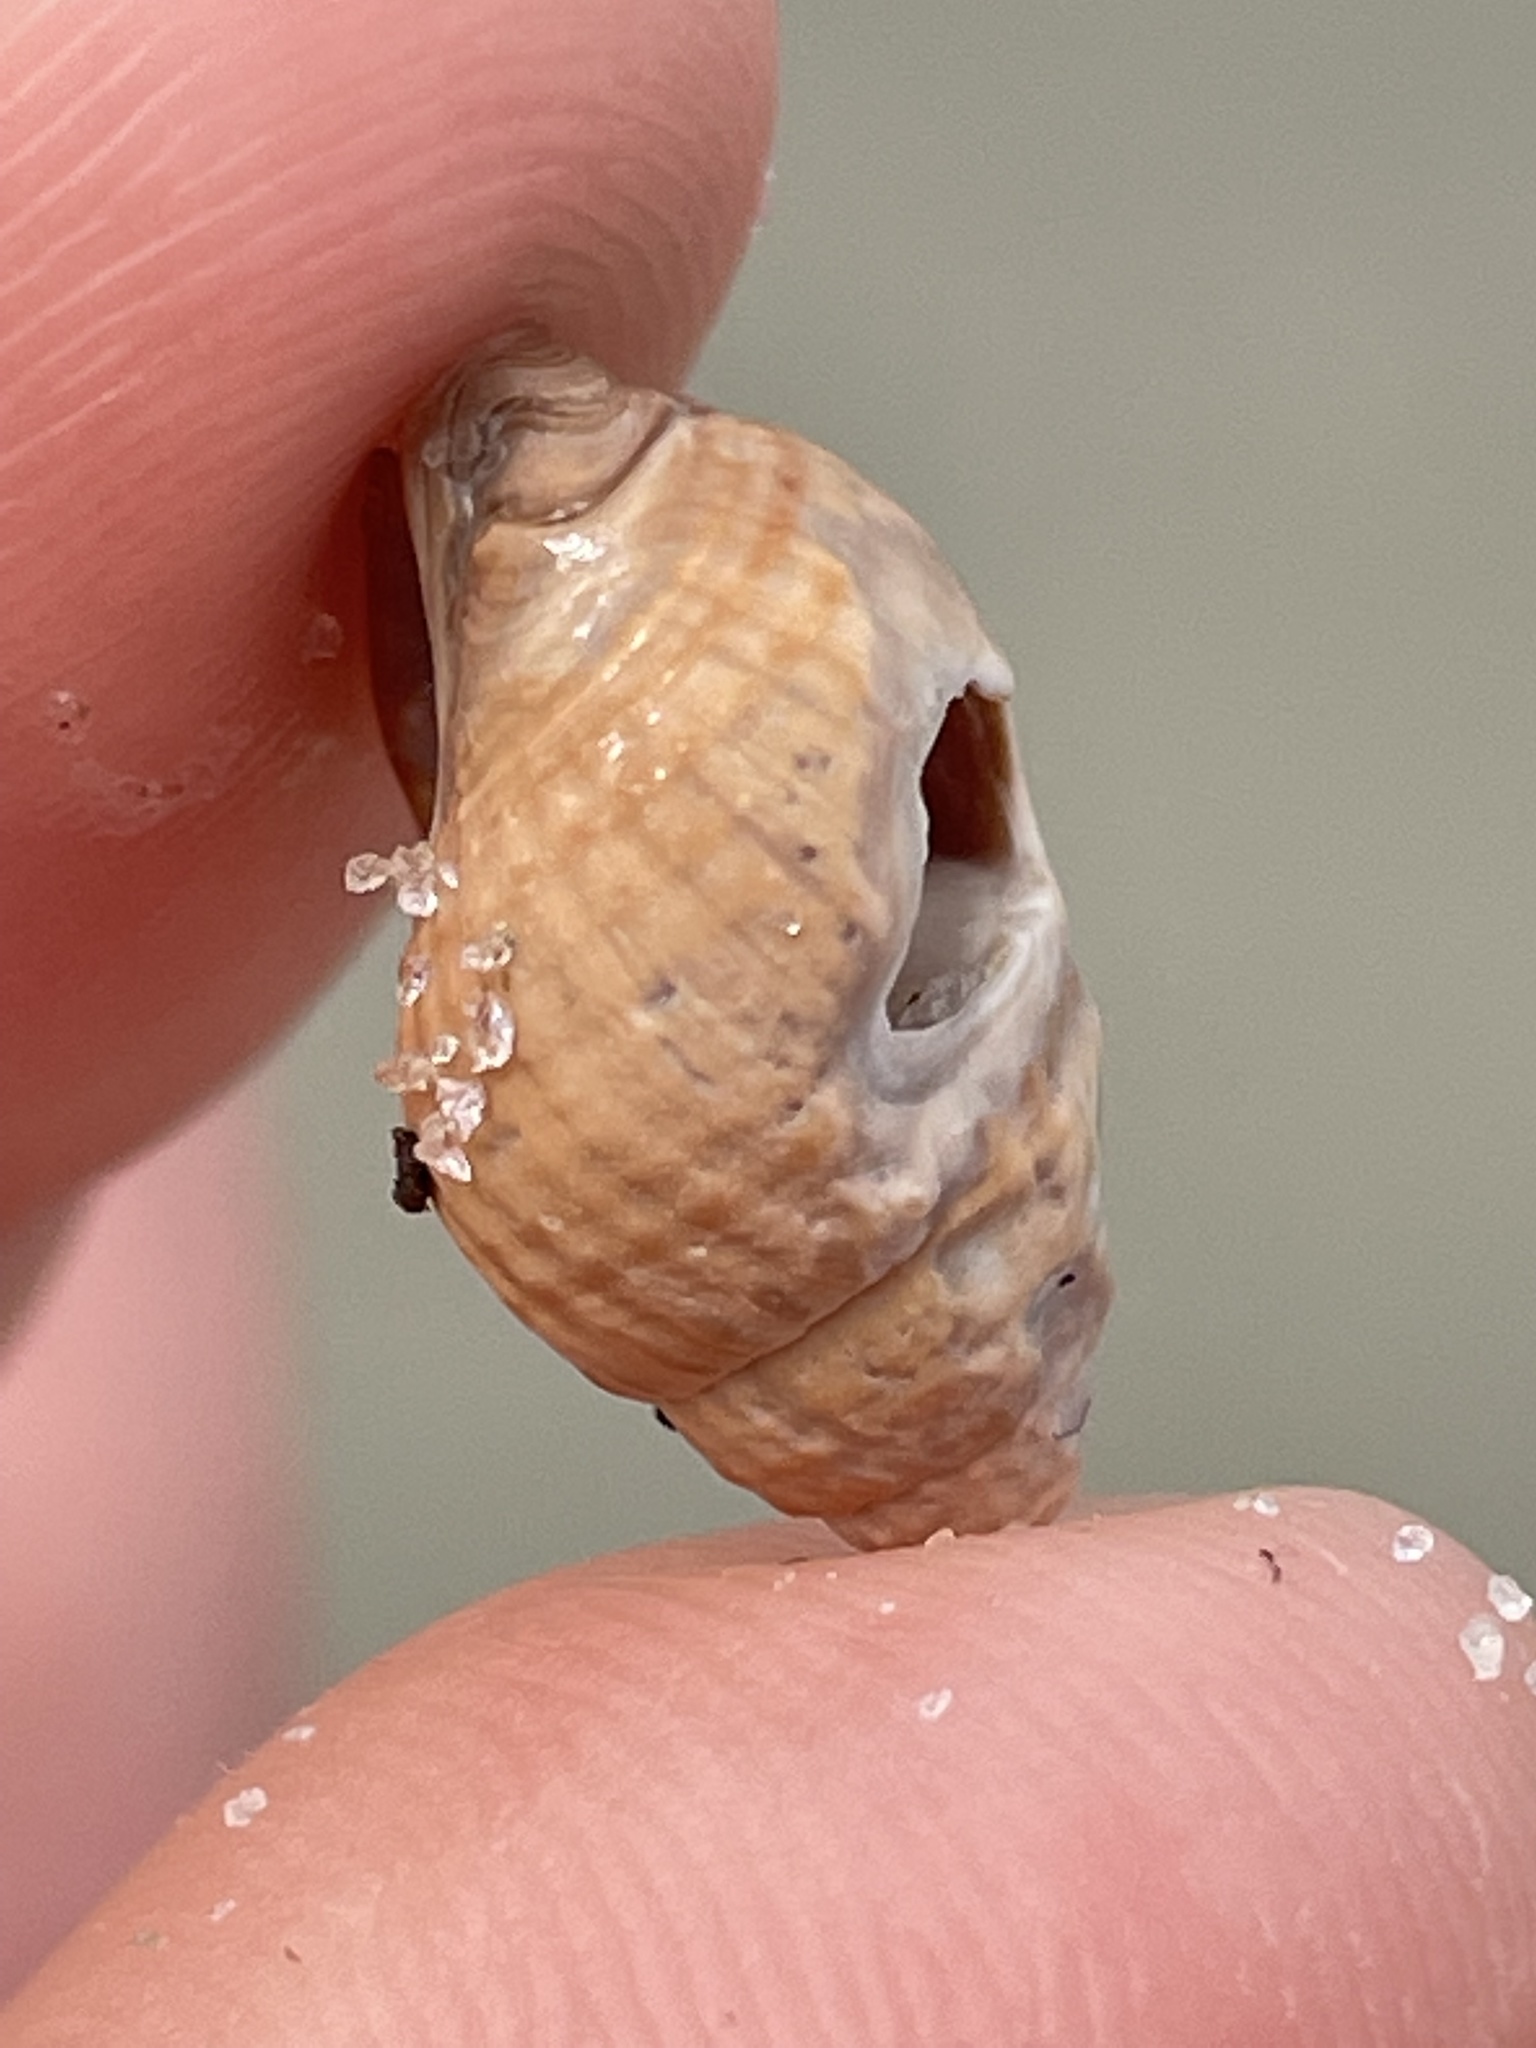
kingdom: Animalia
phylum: Mollusca
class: Gastropoda
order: Neogastropoda
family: Nassariidae
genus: Ilyanassa
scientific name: Ilyanassa obsoleta
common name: Eastern mudsnail
